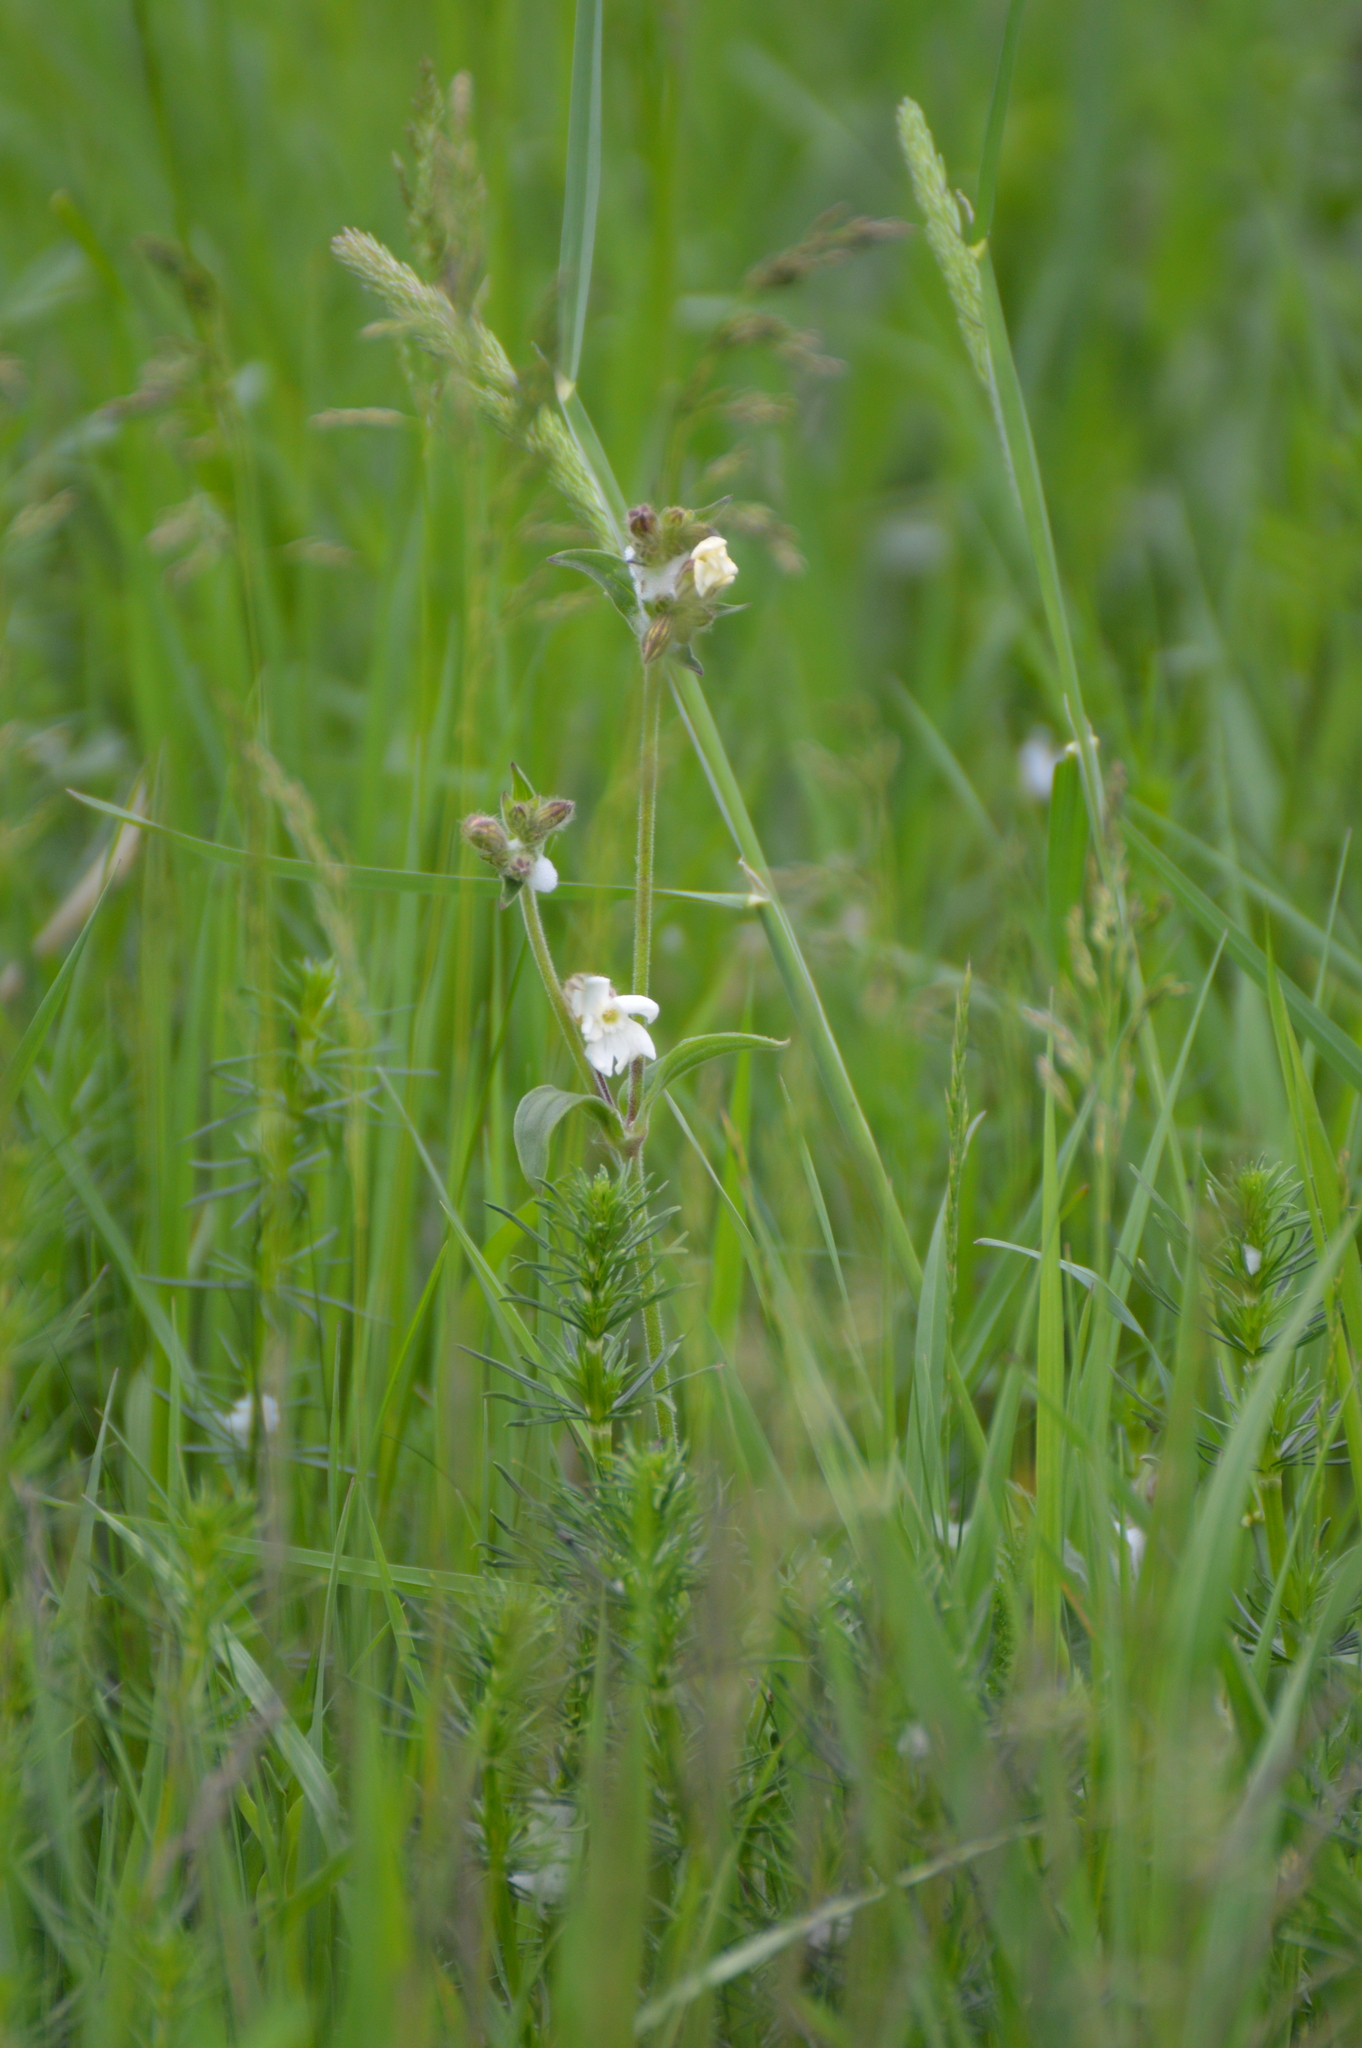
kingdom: Plantae
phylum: Tracheophyta
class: Magnoliopsida
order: Caryophyllales
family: Caryophyllaceae
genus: Silene
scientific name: Silene latifolia
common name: White campion
